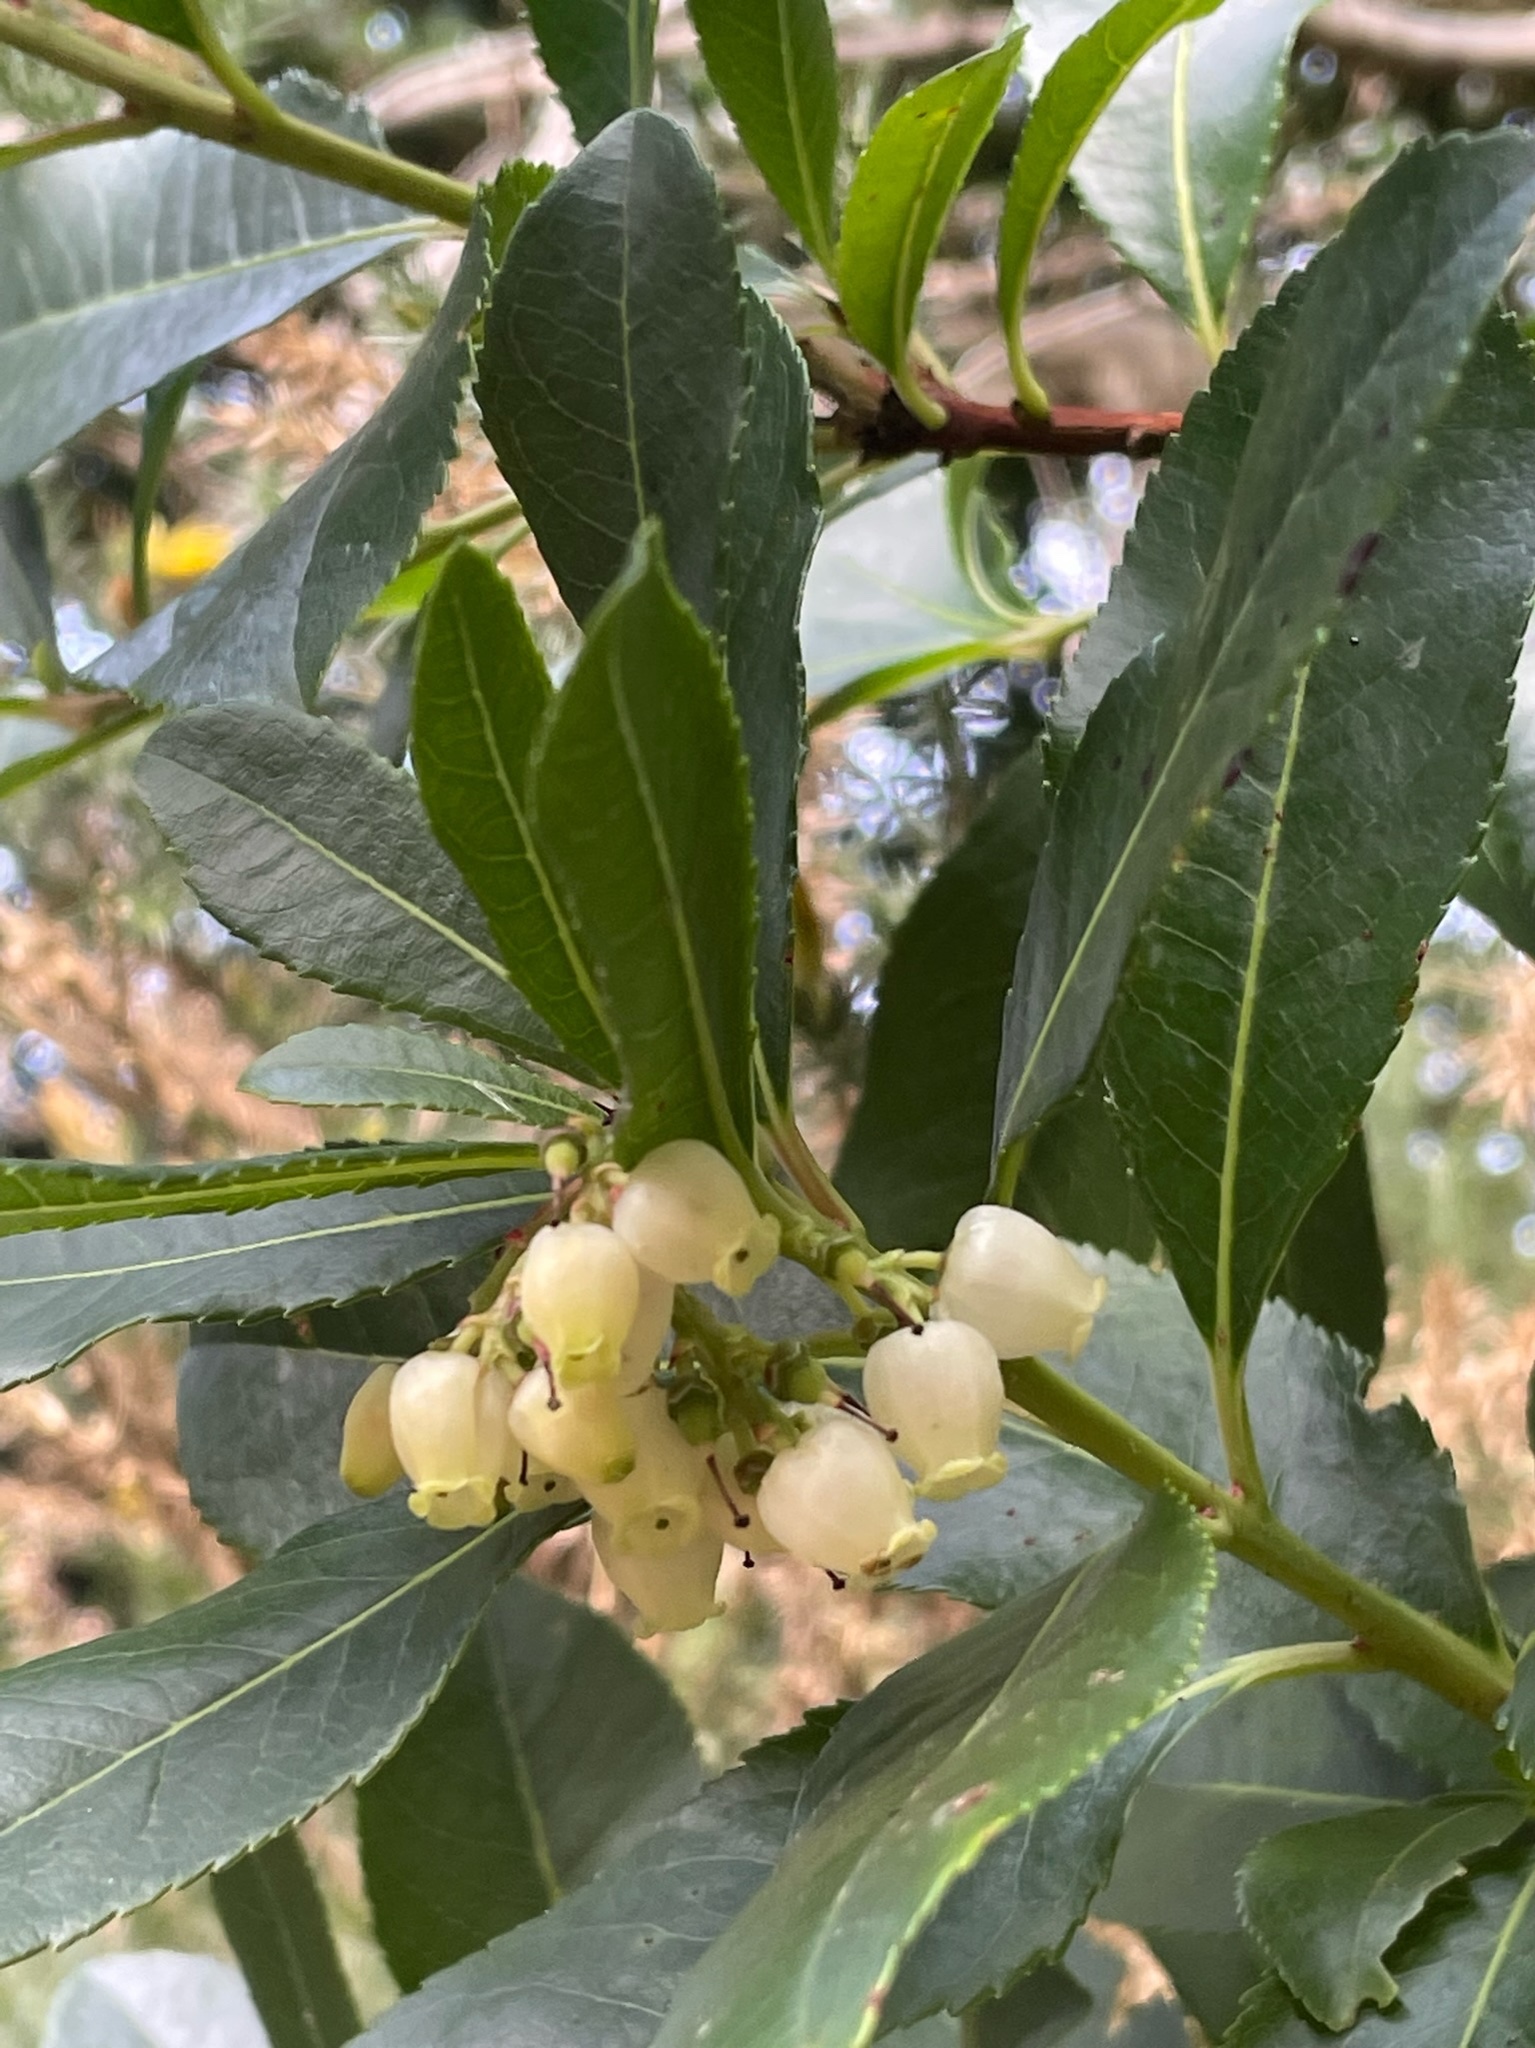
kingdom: Plantae
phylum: Tracheophyta
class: Magnoliopsida
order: Ericales
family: Ericaceae
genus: Arbutus
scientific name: Arbutus unedo
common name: Strawberry-tree
